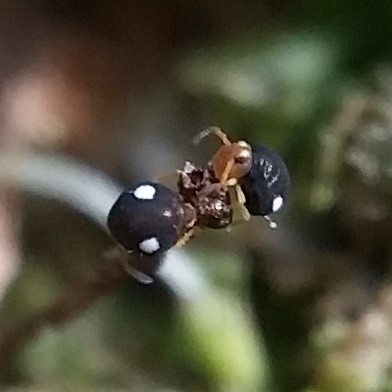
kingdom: Animalia
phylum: Arthropoda
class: Collembola
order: Symphypleona
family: Katiannidae
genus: Sminthurinus
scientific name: Sminthurinus quadrimaculatus
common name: Globular springtail
